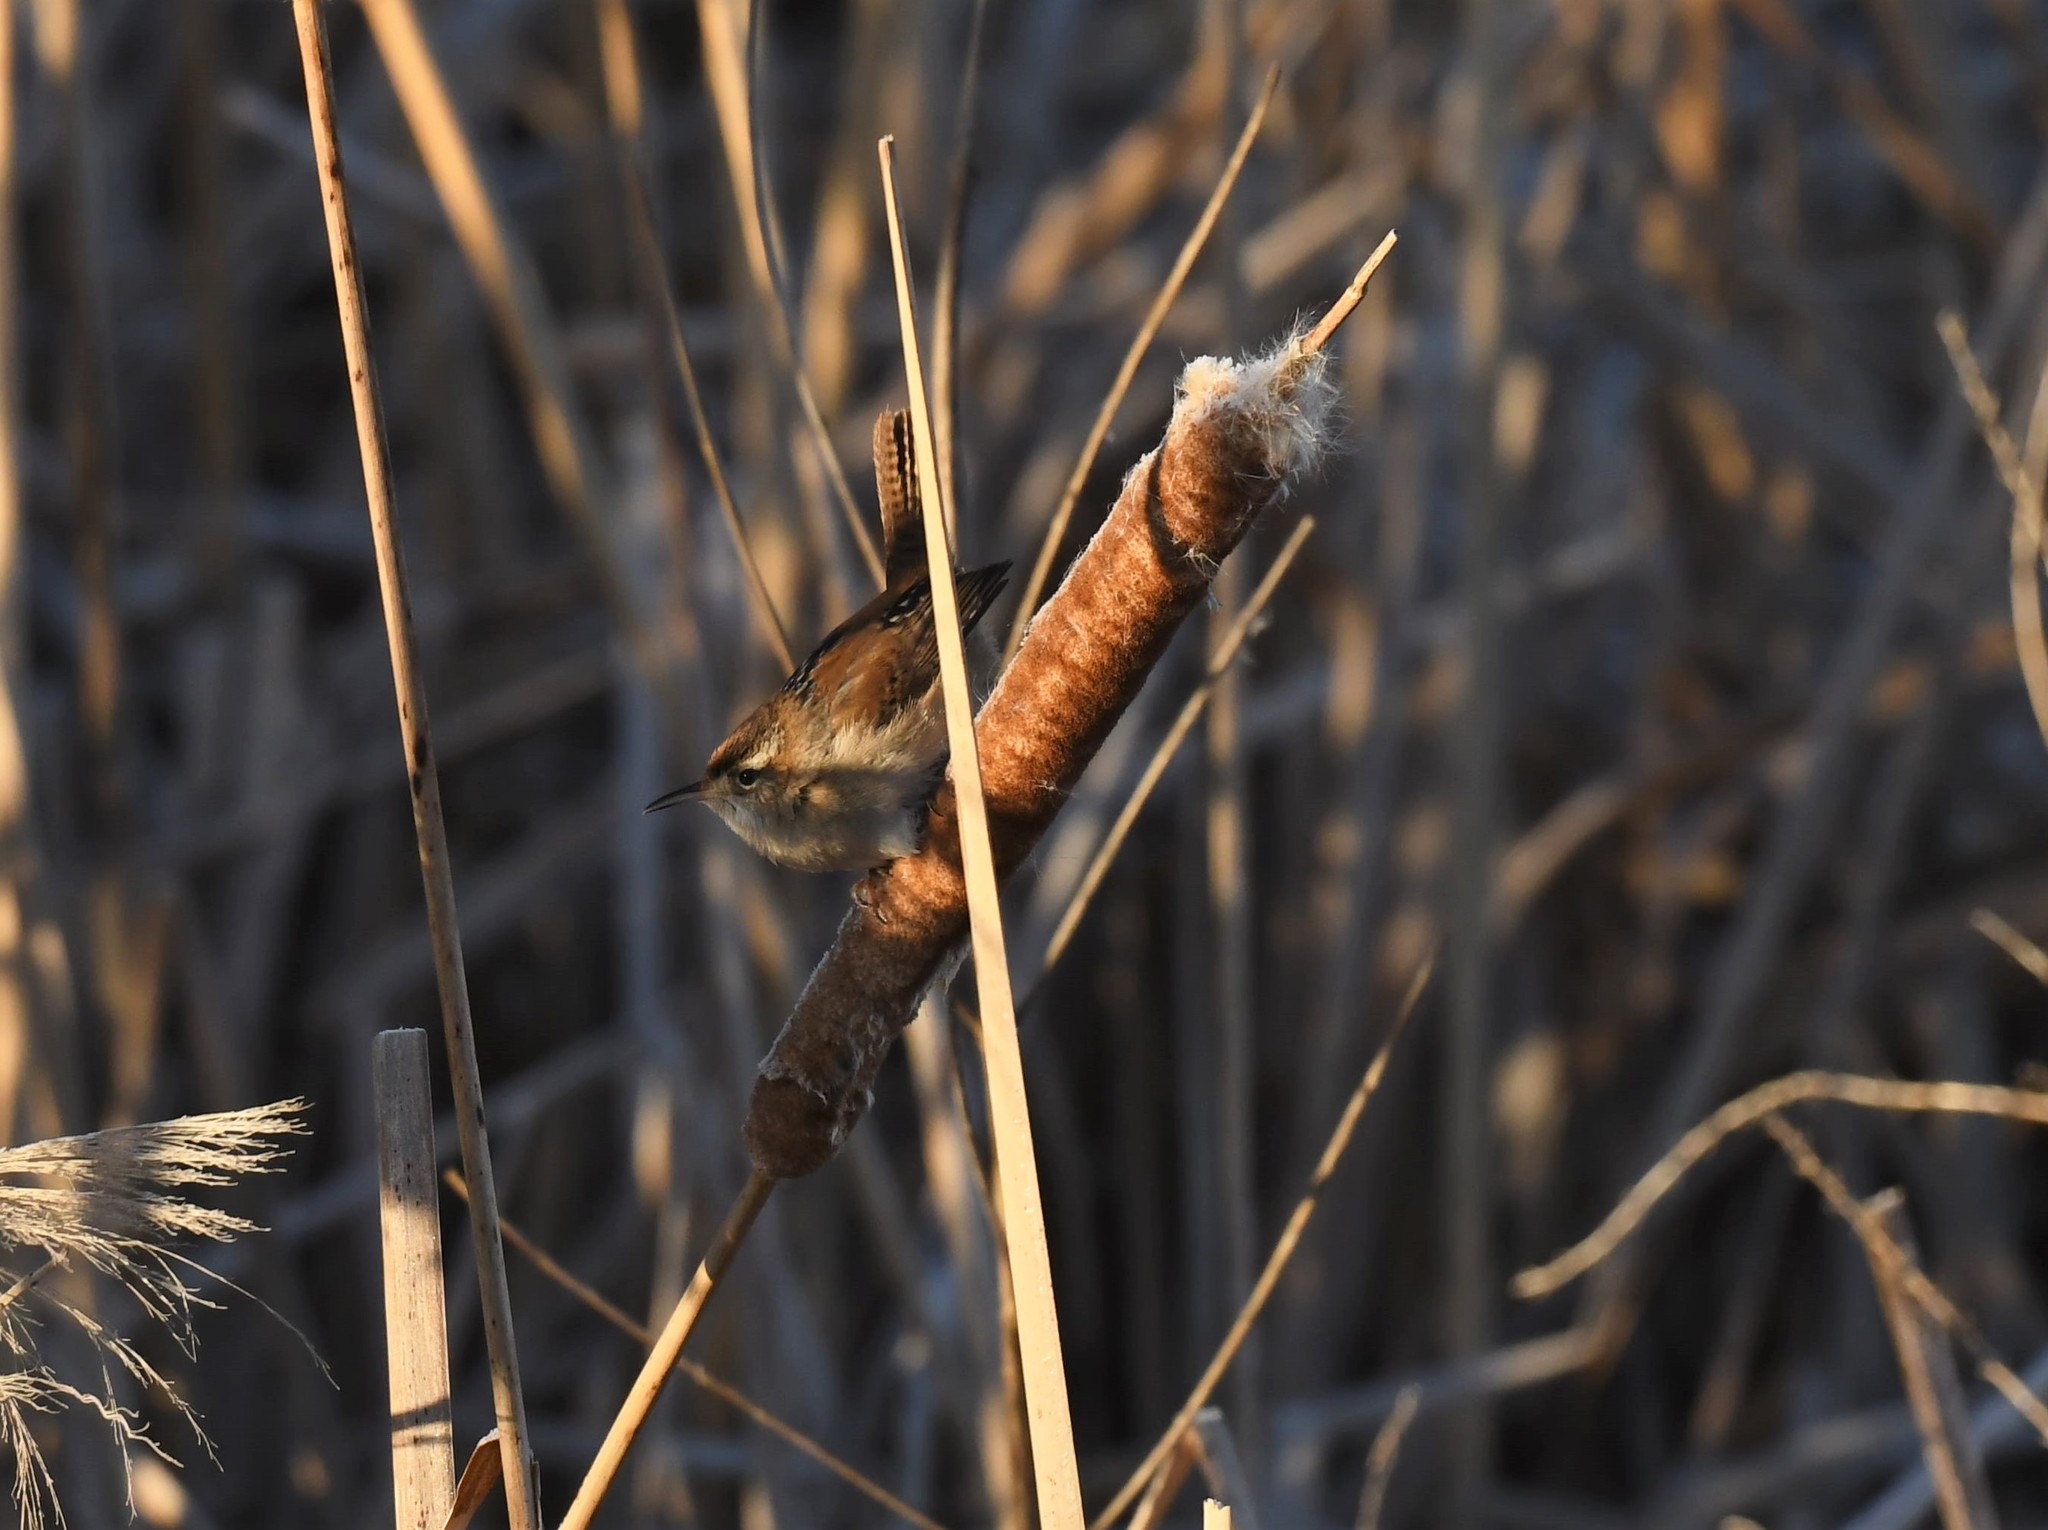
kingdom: Animalia
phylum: Chordata
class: Aves
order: Passeriformes
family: Troglodytidae
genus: Cistothorus
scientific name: Cistothorus palustris
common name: Marsh wren
